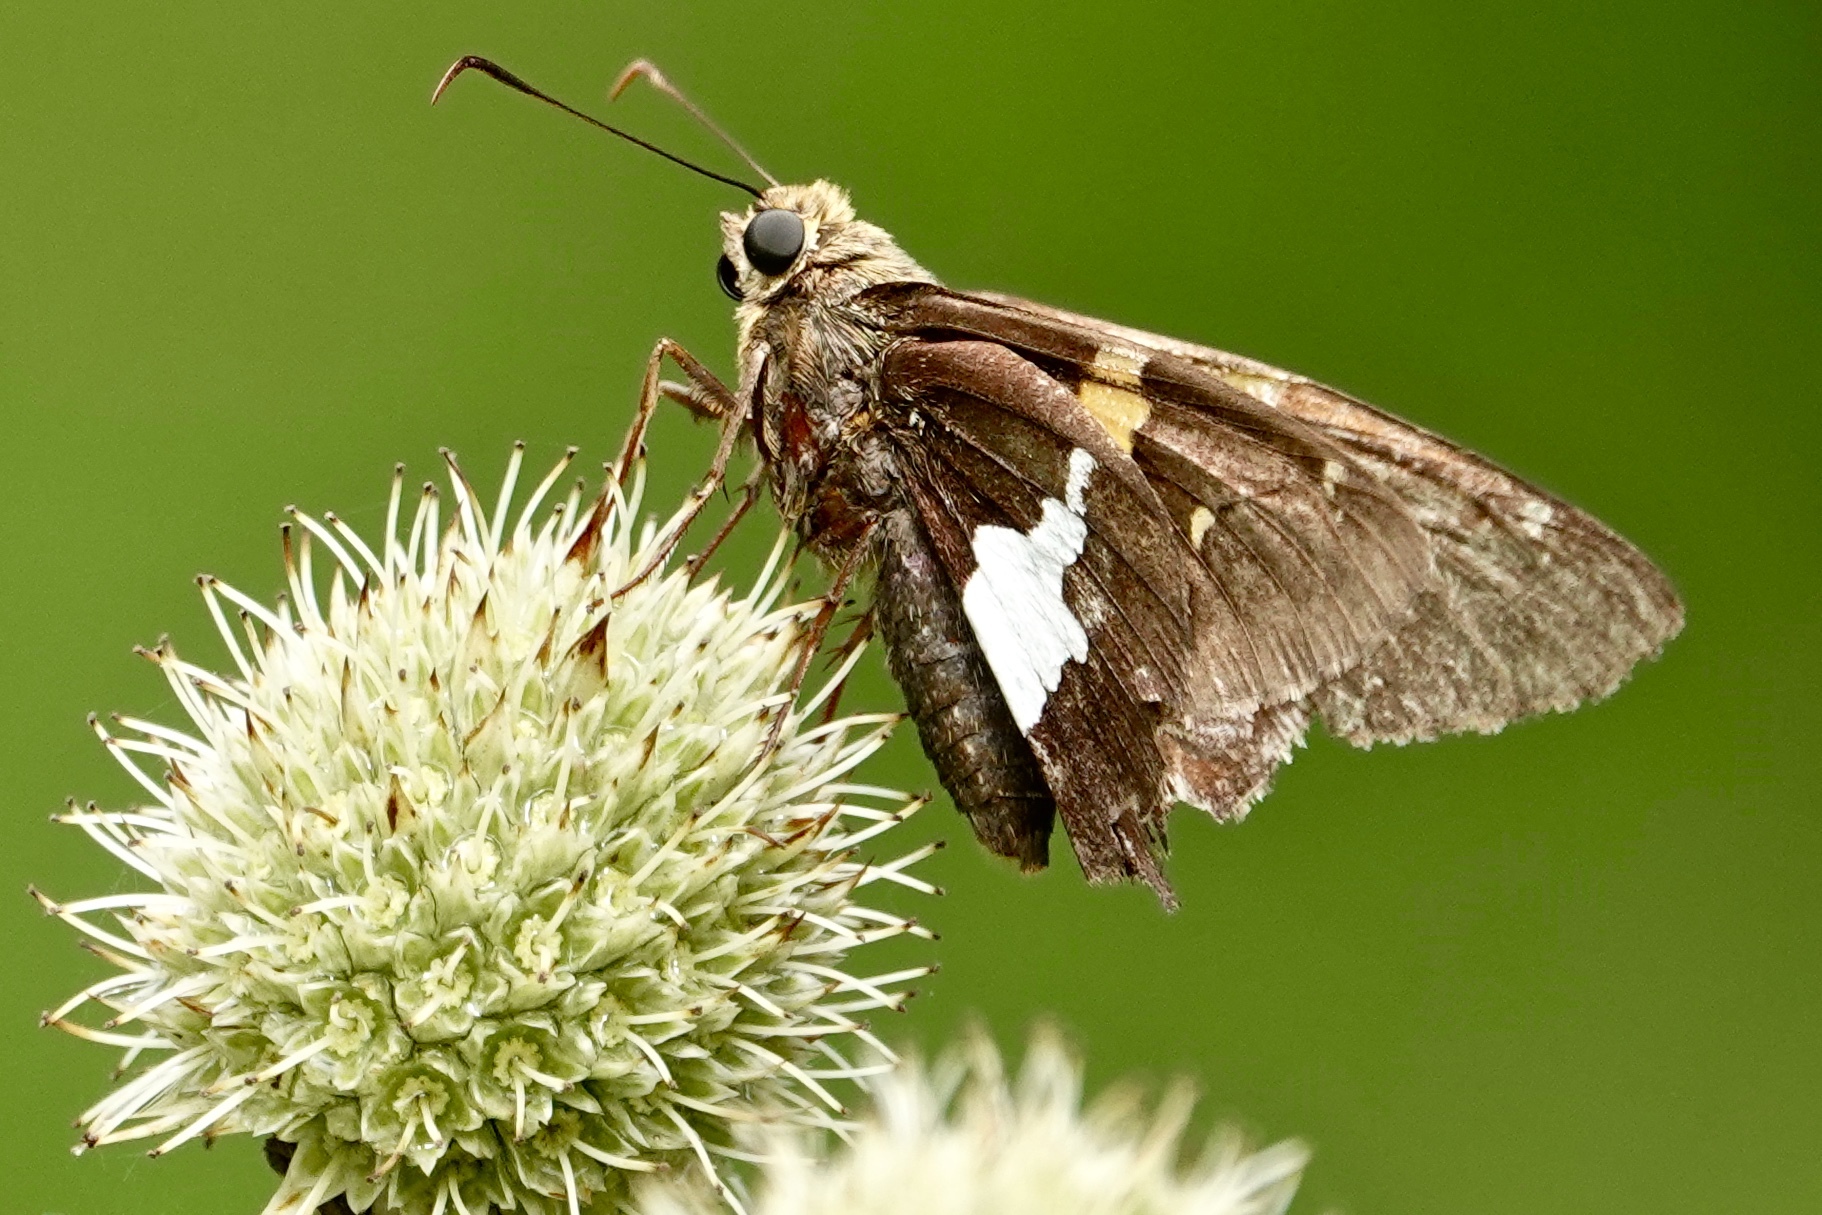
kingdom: Animalia
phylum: Arthropoda
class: Insecta
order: Lepidoptera
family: Hesperiidae
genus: Epargyreus
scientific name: Epargyreus clarus
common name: Silver-spotted skipper
